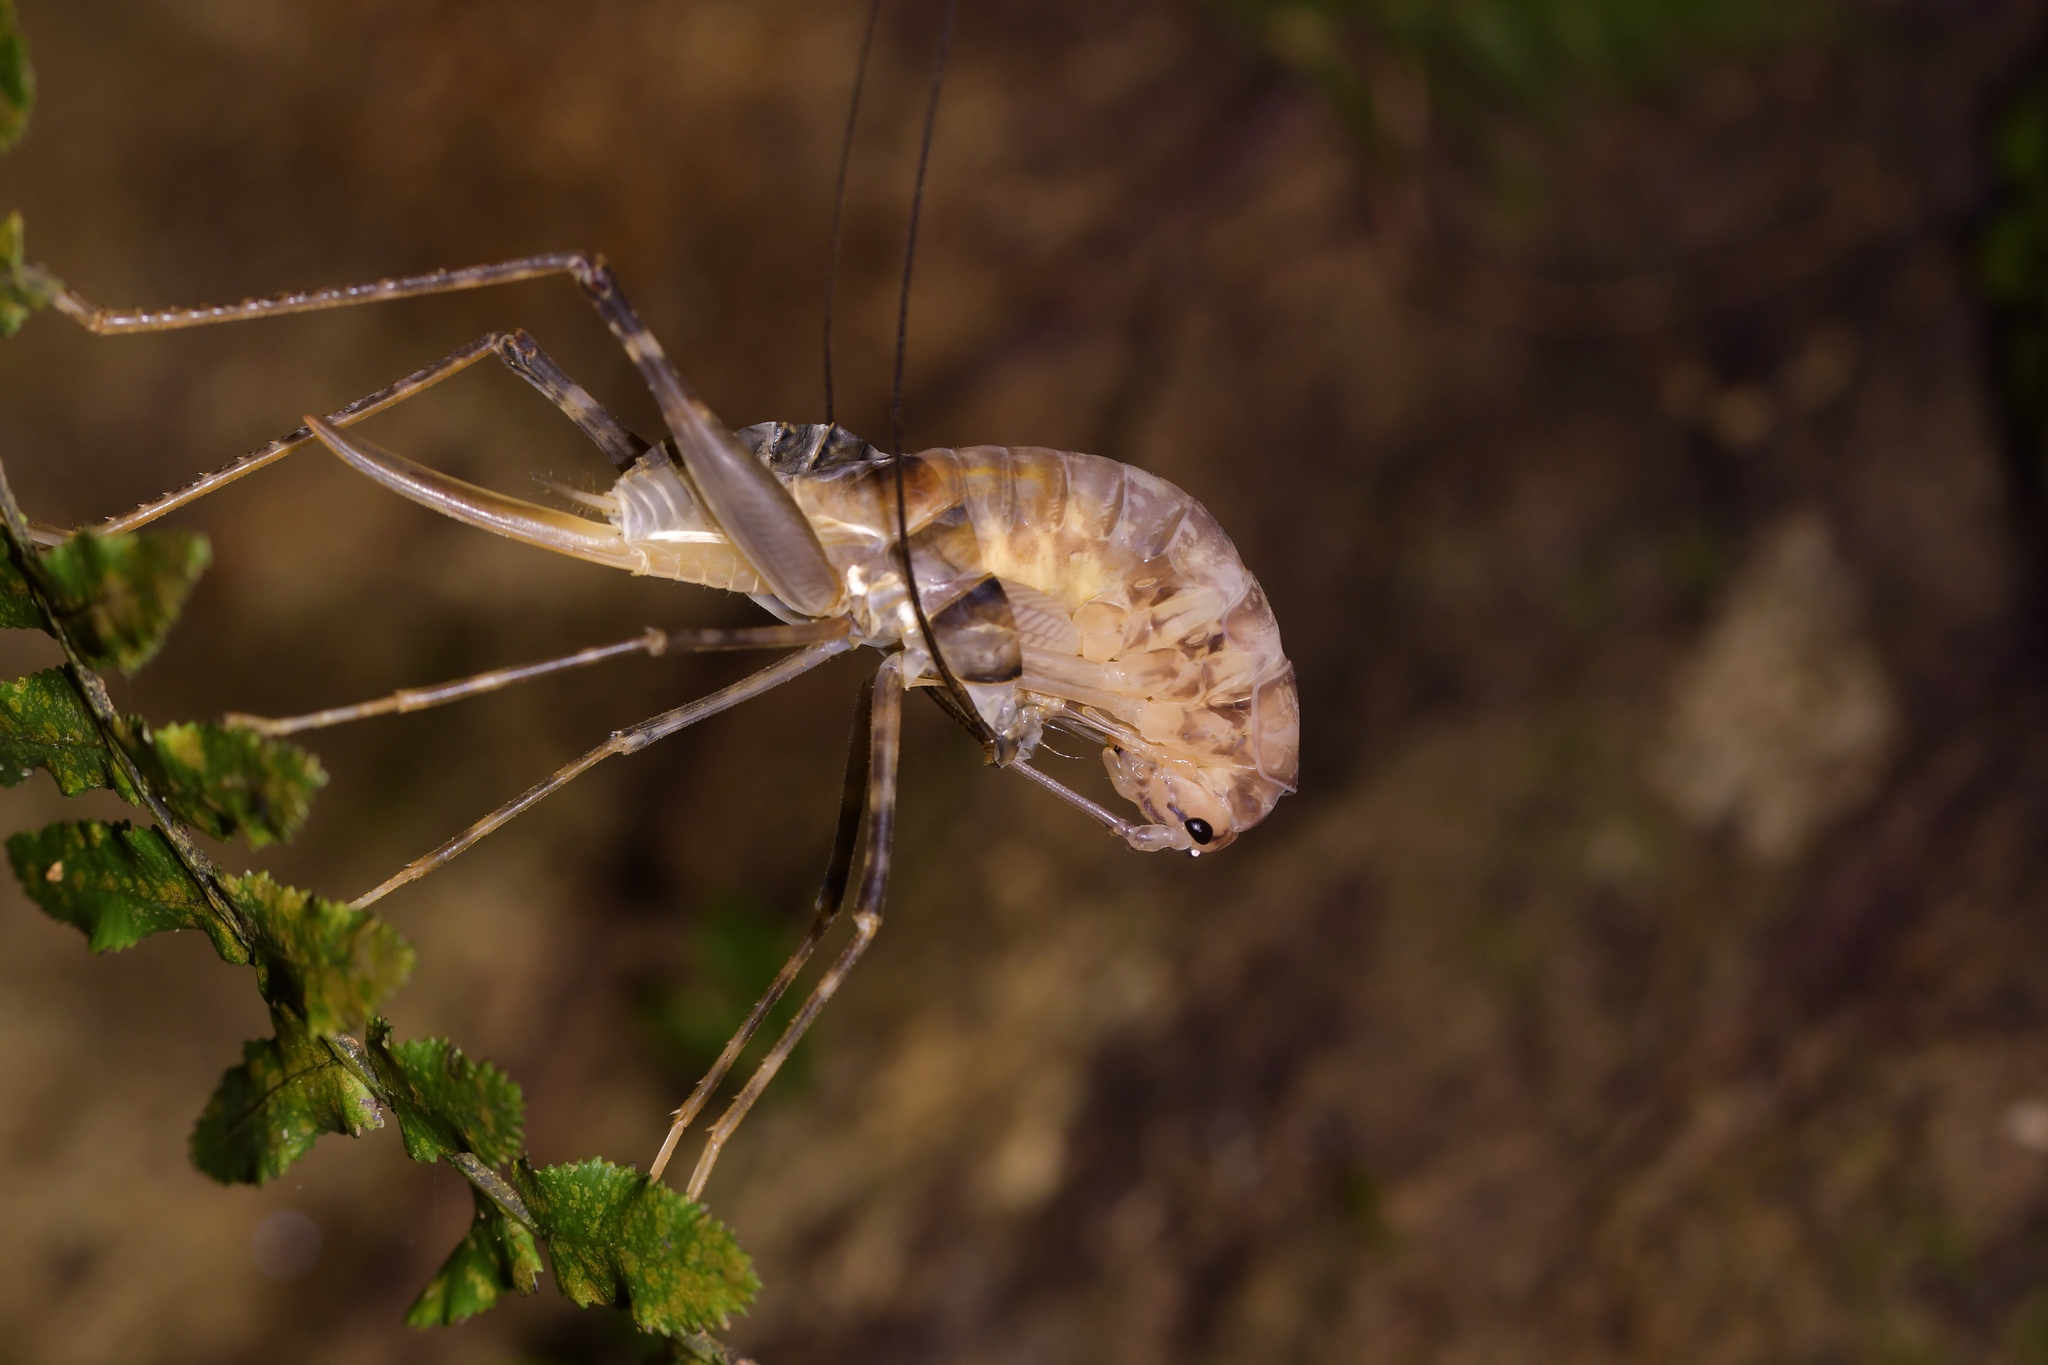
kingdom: Animalia
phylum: Arthropoda
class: Insecta
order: Orthoptera
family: Rhaphidophoridae
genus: Pachyrhamma
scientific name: Pachyrhamma edwardsii
